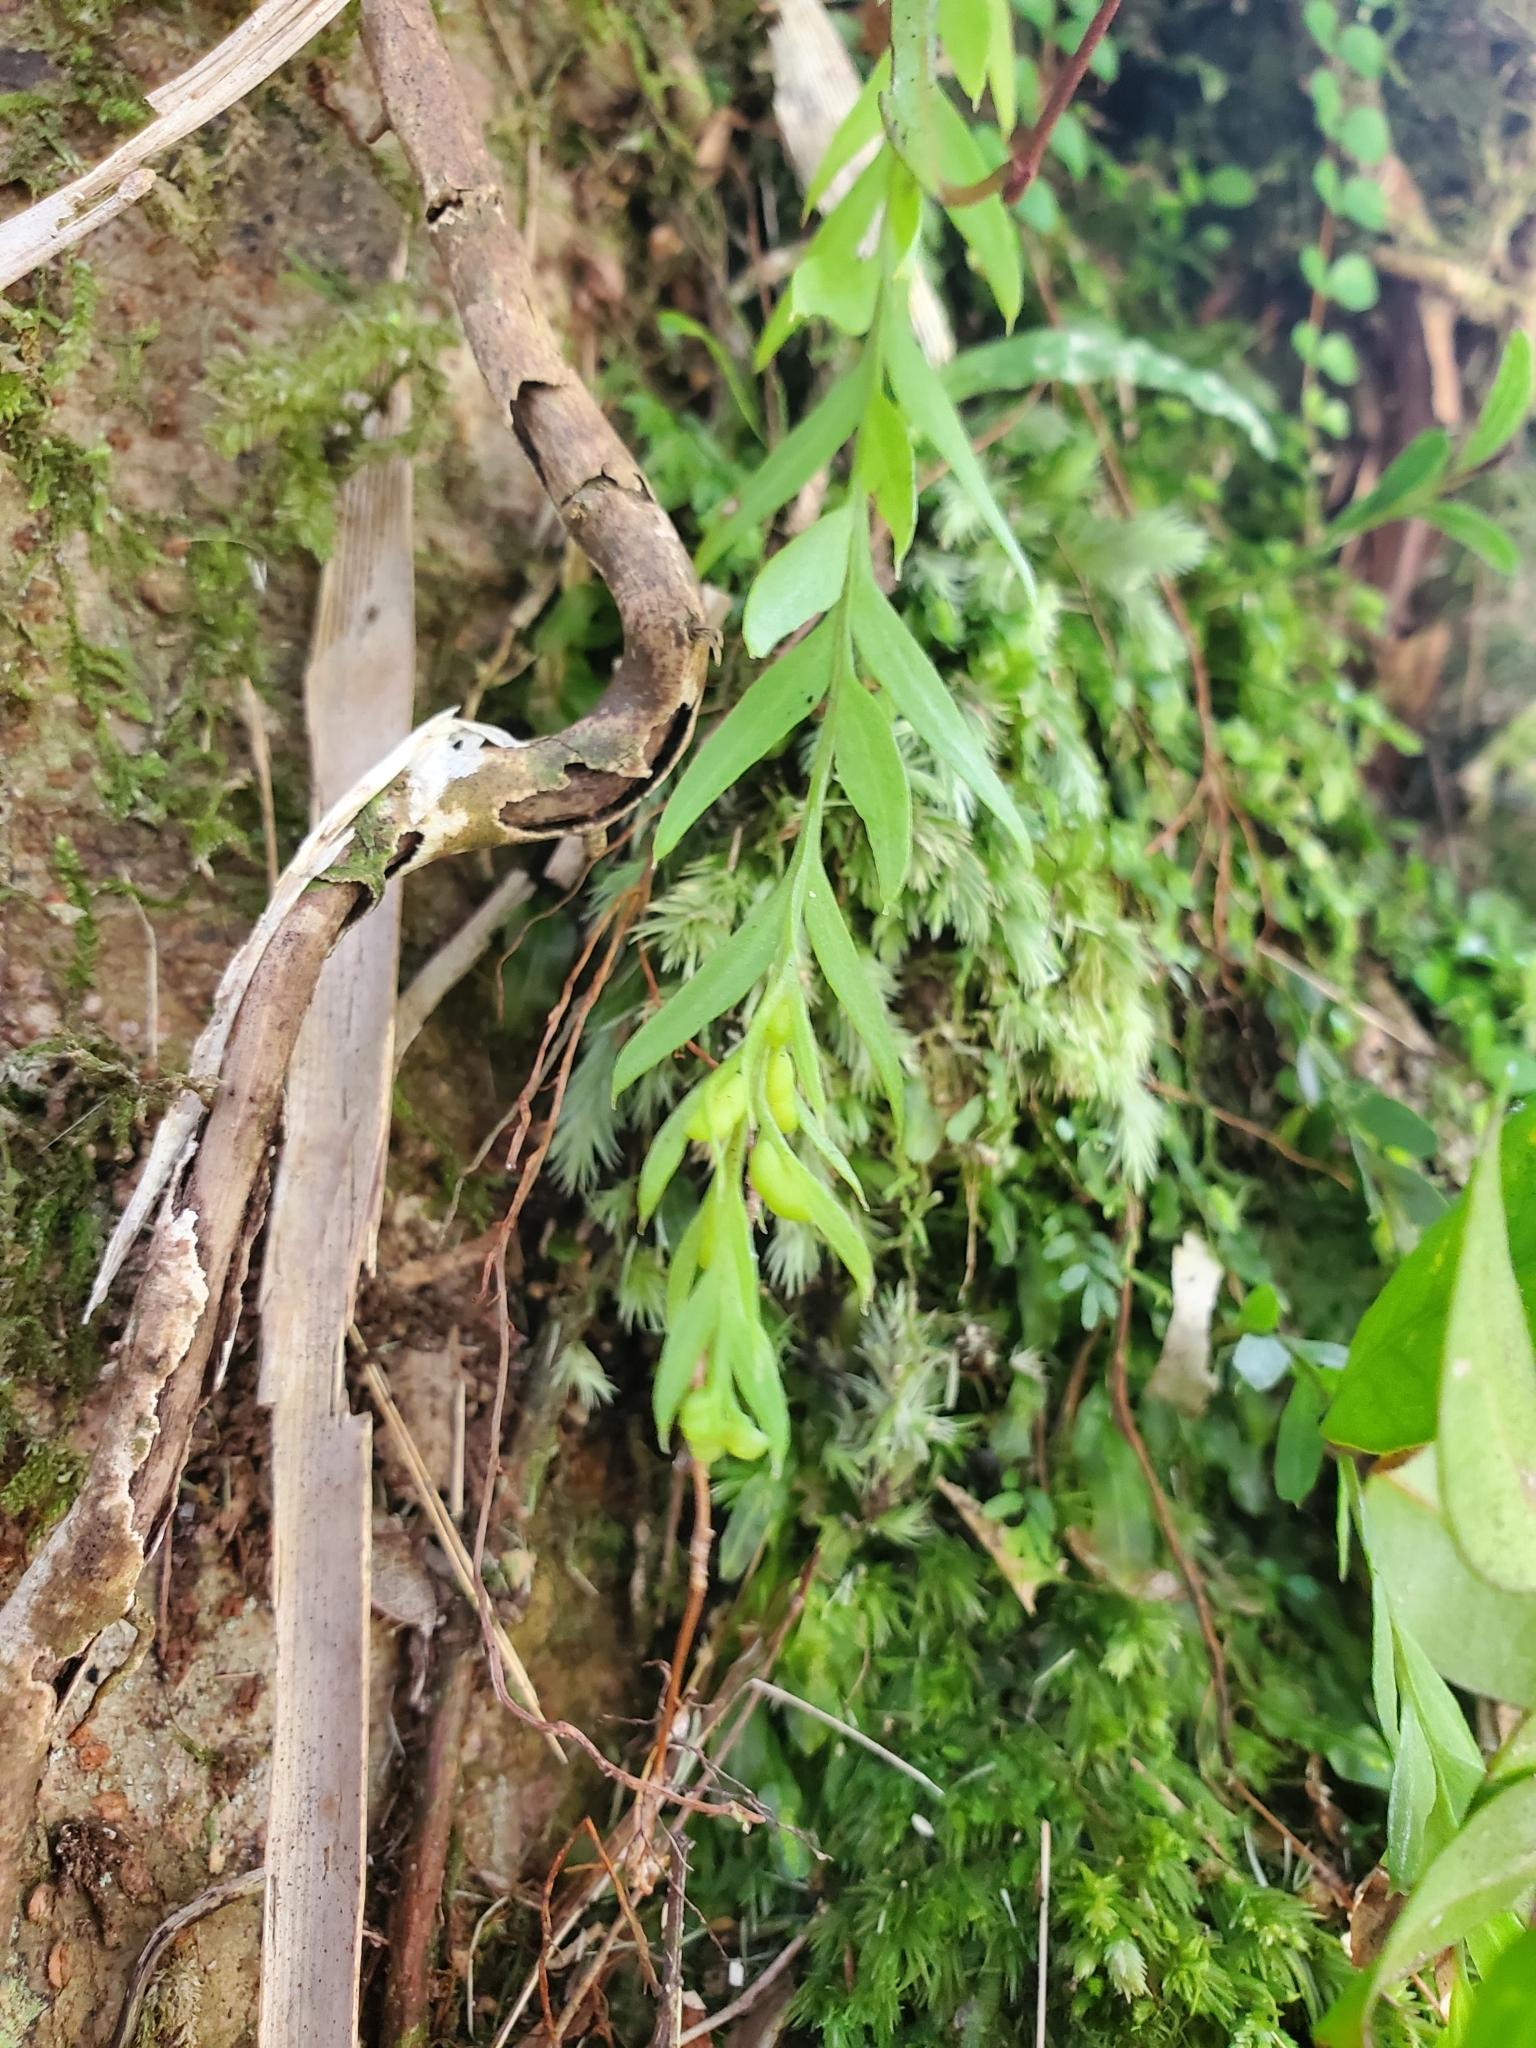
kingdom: Plantae
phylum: Tracheophyta
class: Polypodiopsida
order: Psilotales
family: Psilotaceae
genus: Tmesipteris
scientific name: Tmesipteris elongata
